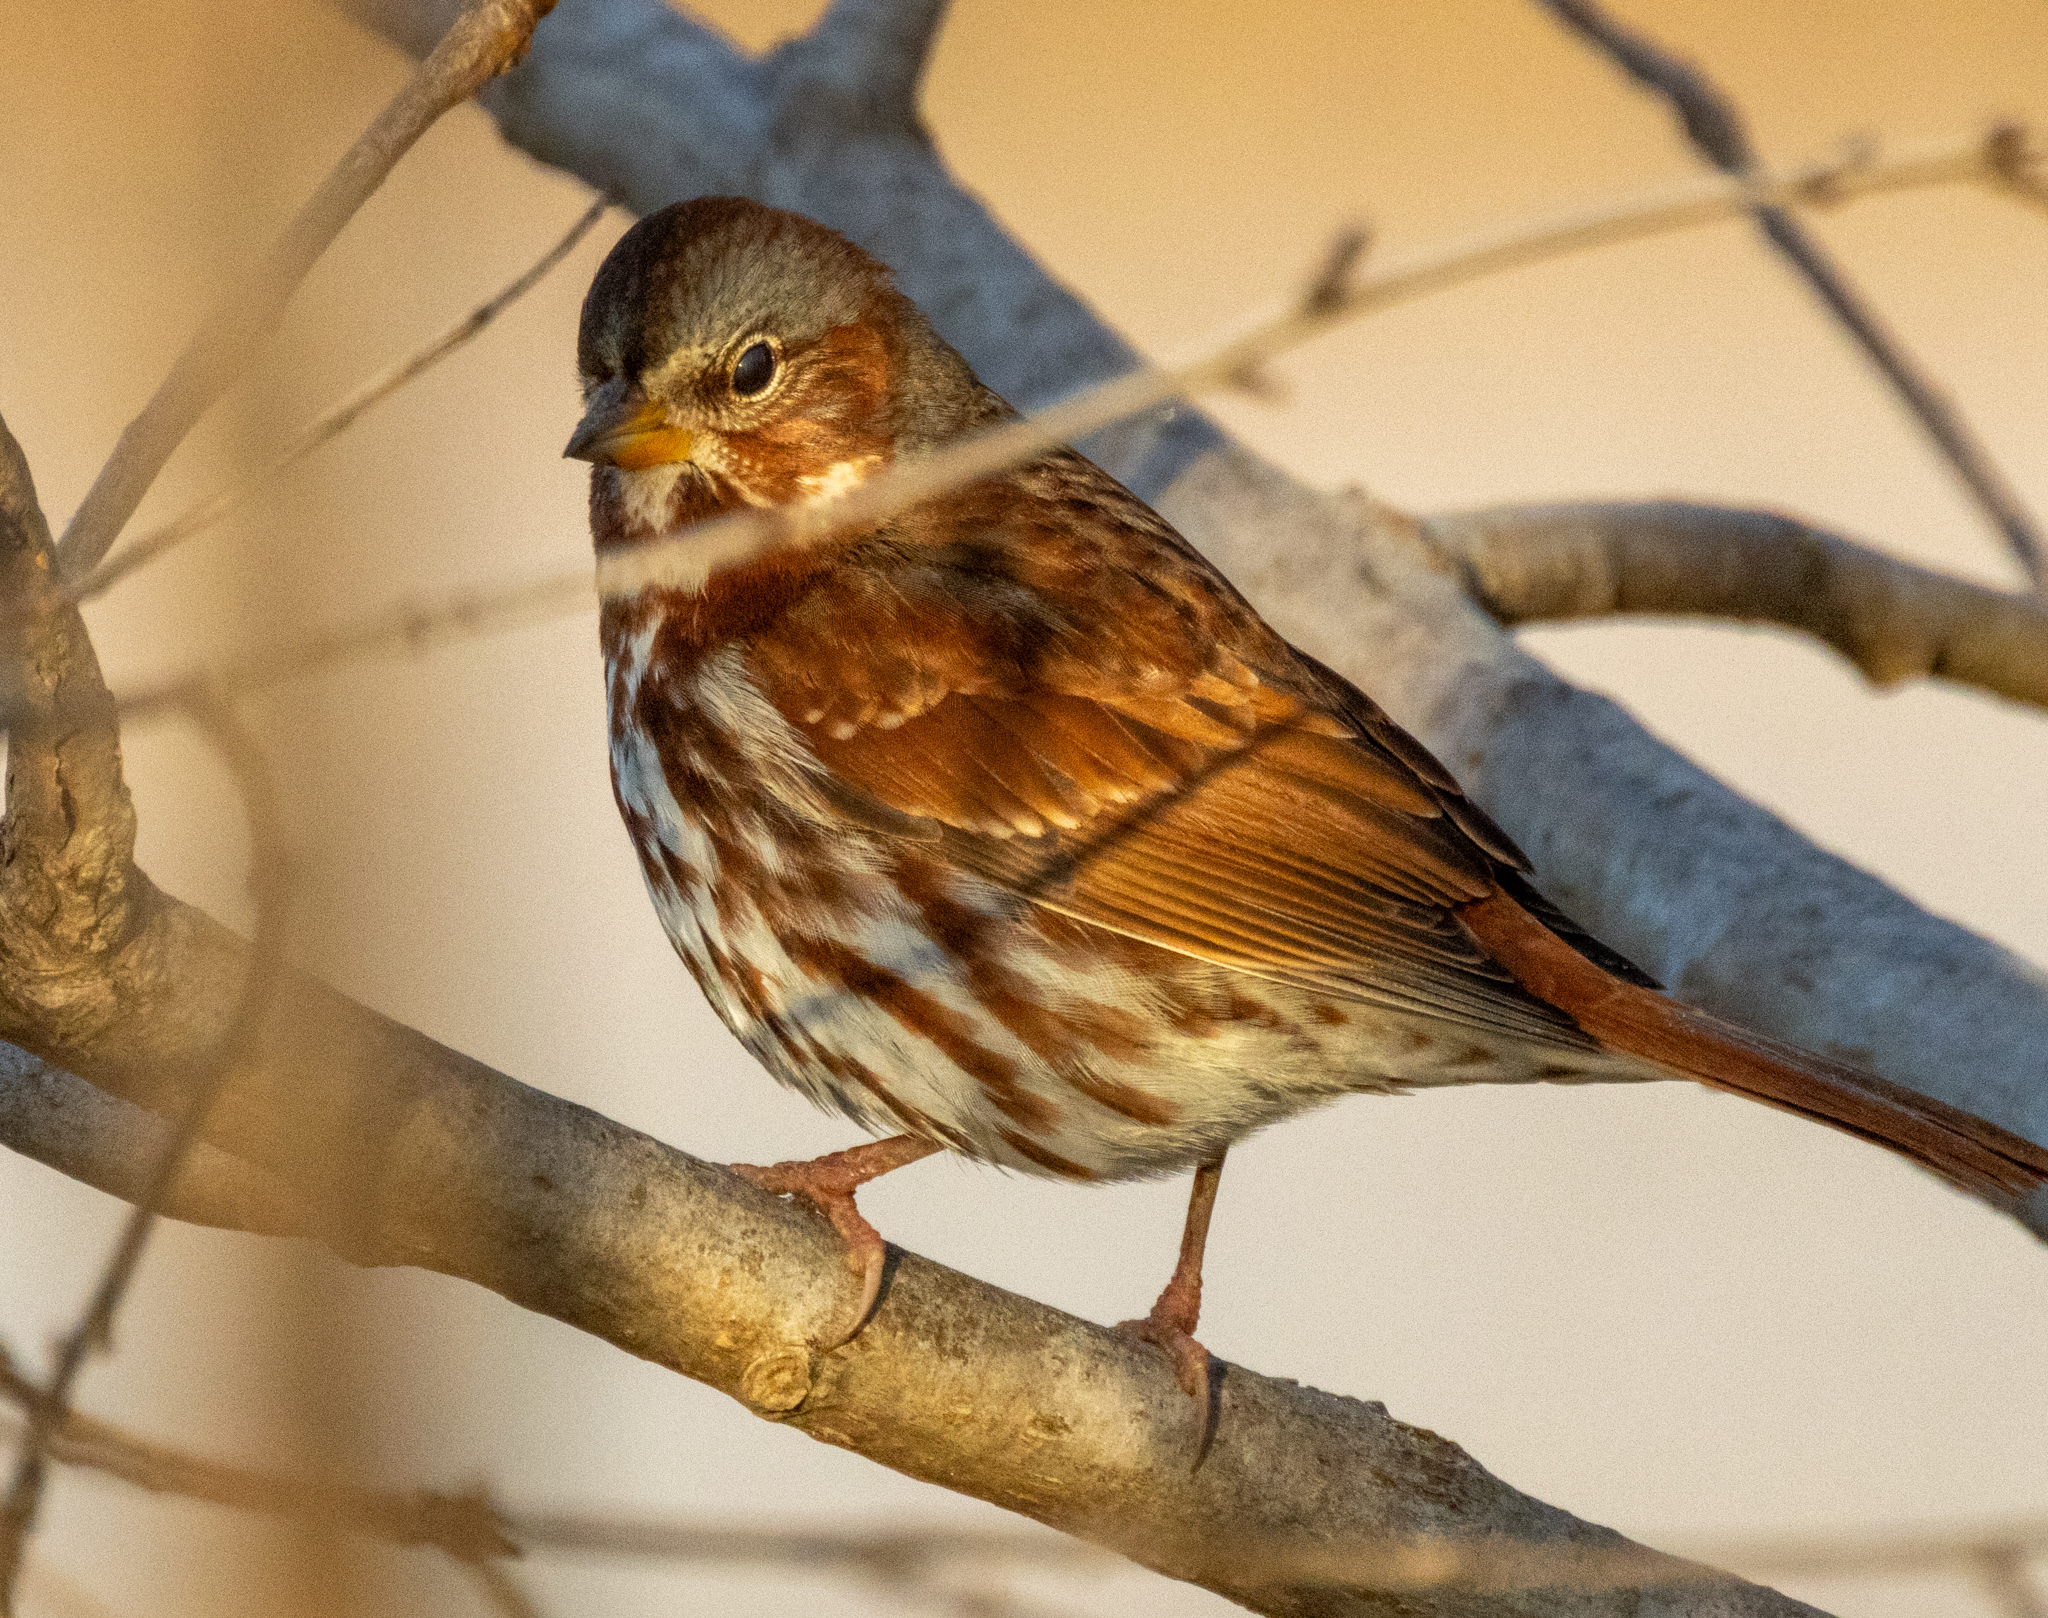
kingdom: Animalia
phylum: Chordata
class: Aves
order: Passeriformes
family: Passerellidae
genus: Passerella
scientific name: Passerella iliaca
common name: Fox sparrow
